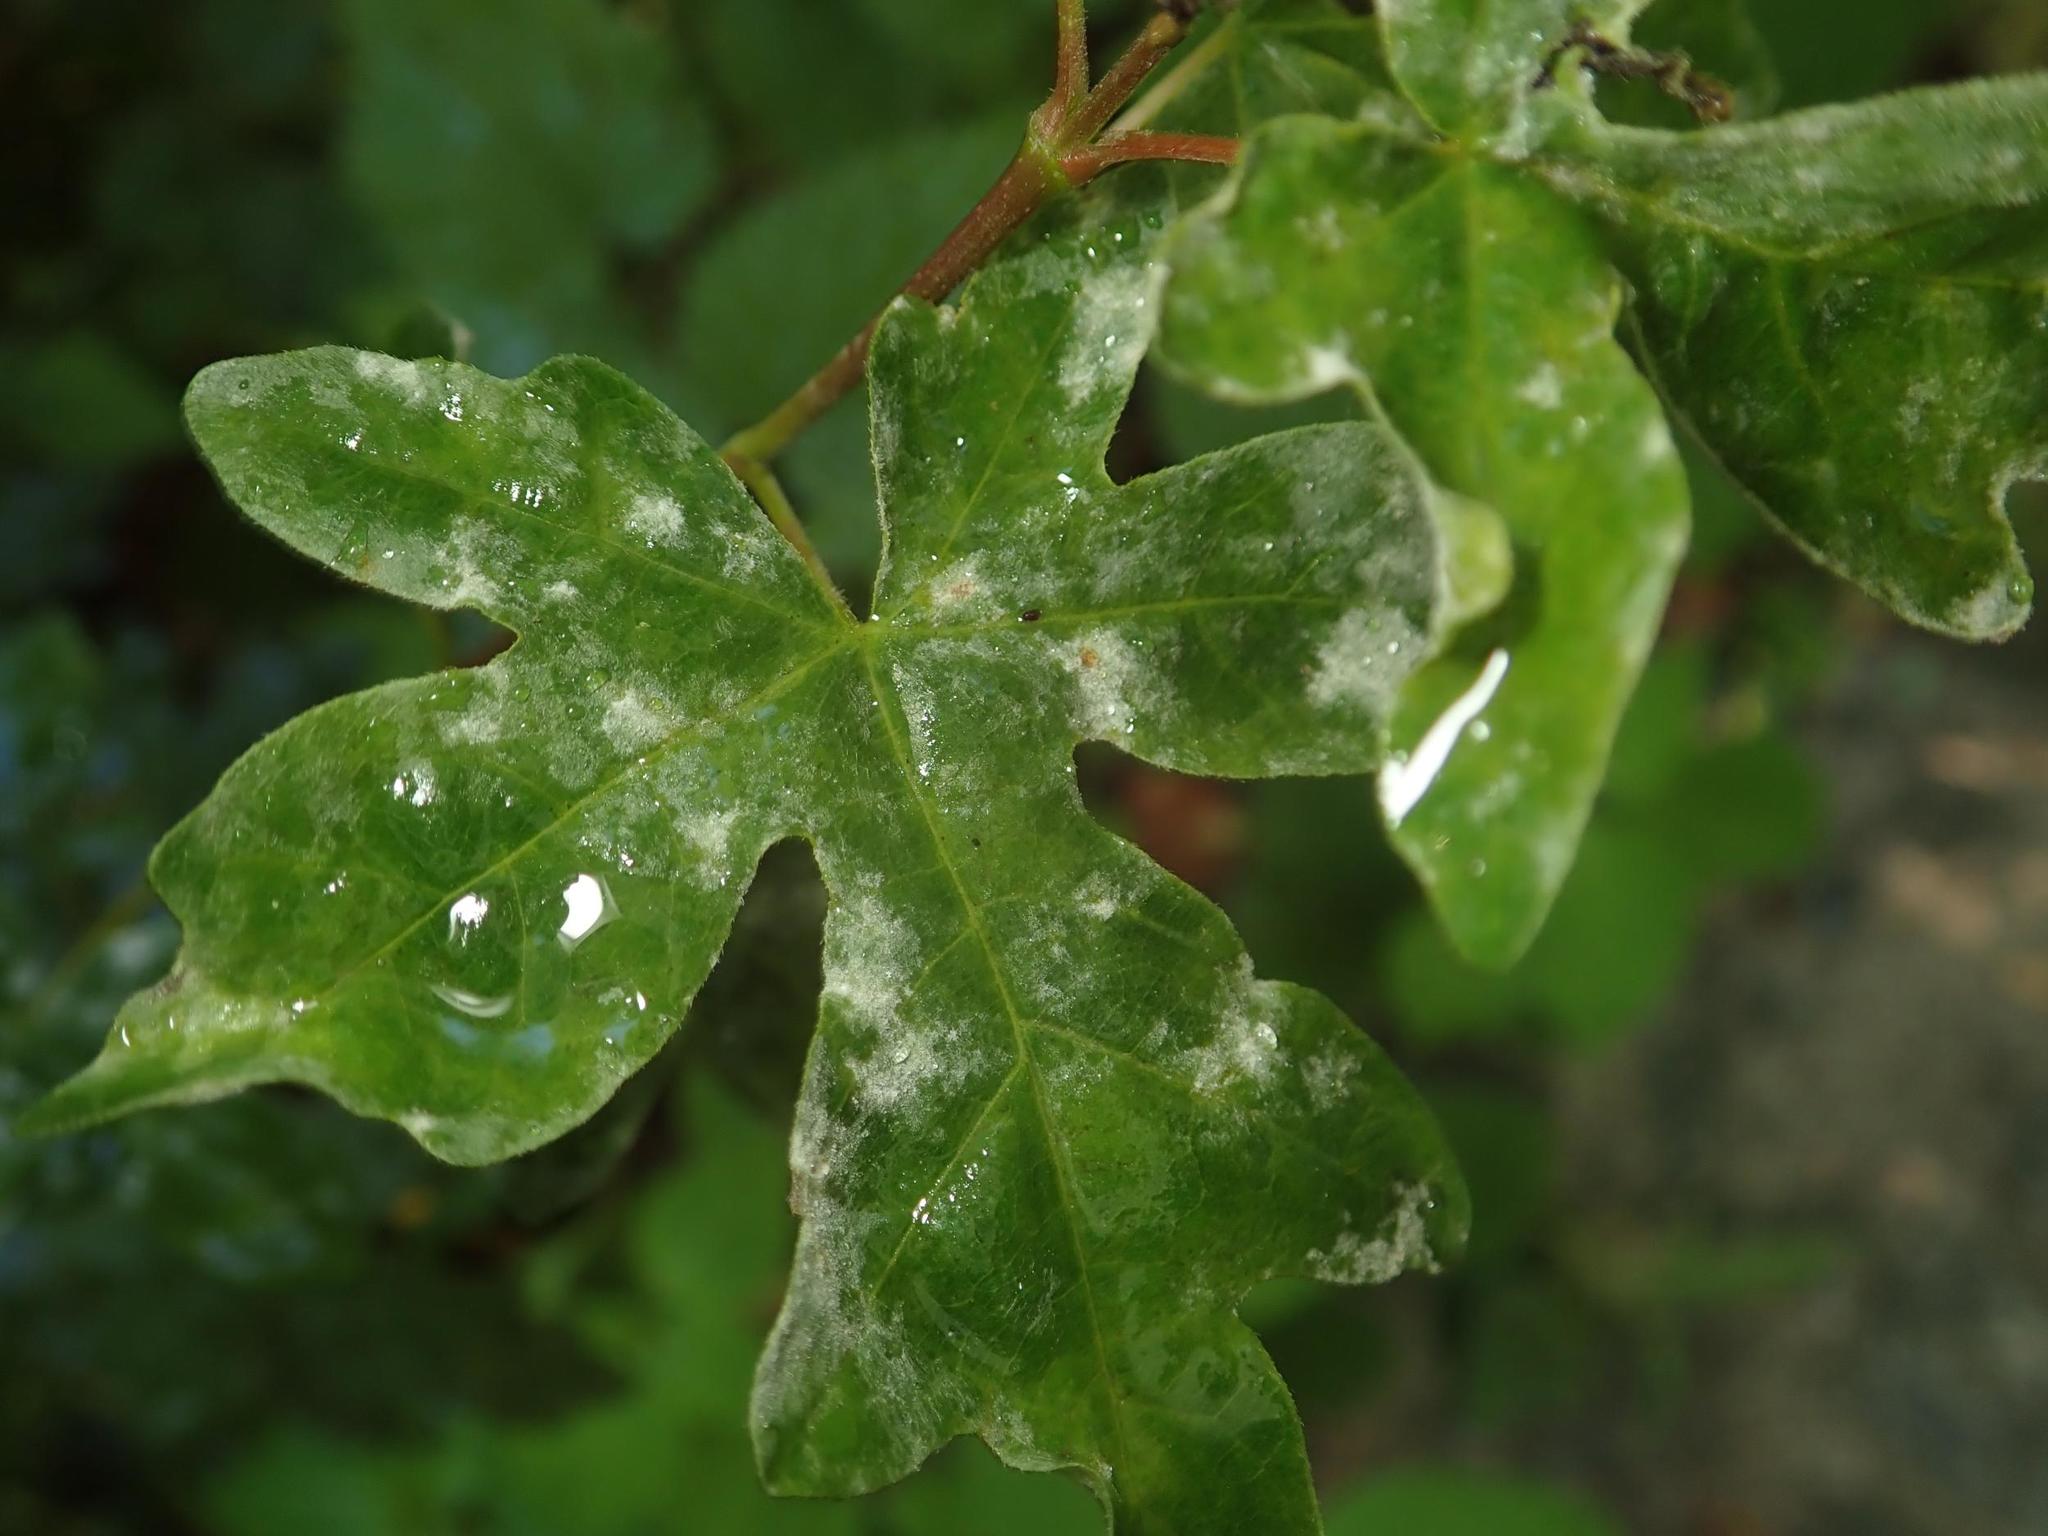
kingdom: Fungi
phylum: Ascomycota
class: Leotiomycetes
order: Helotiales
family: Erysiphaceae
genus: Sawadaea
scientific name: Sawadaea bicornis
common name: Maple mildew
